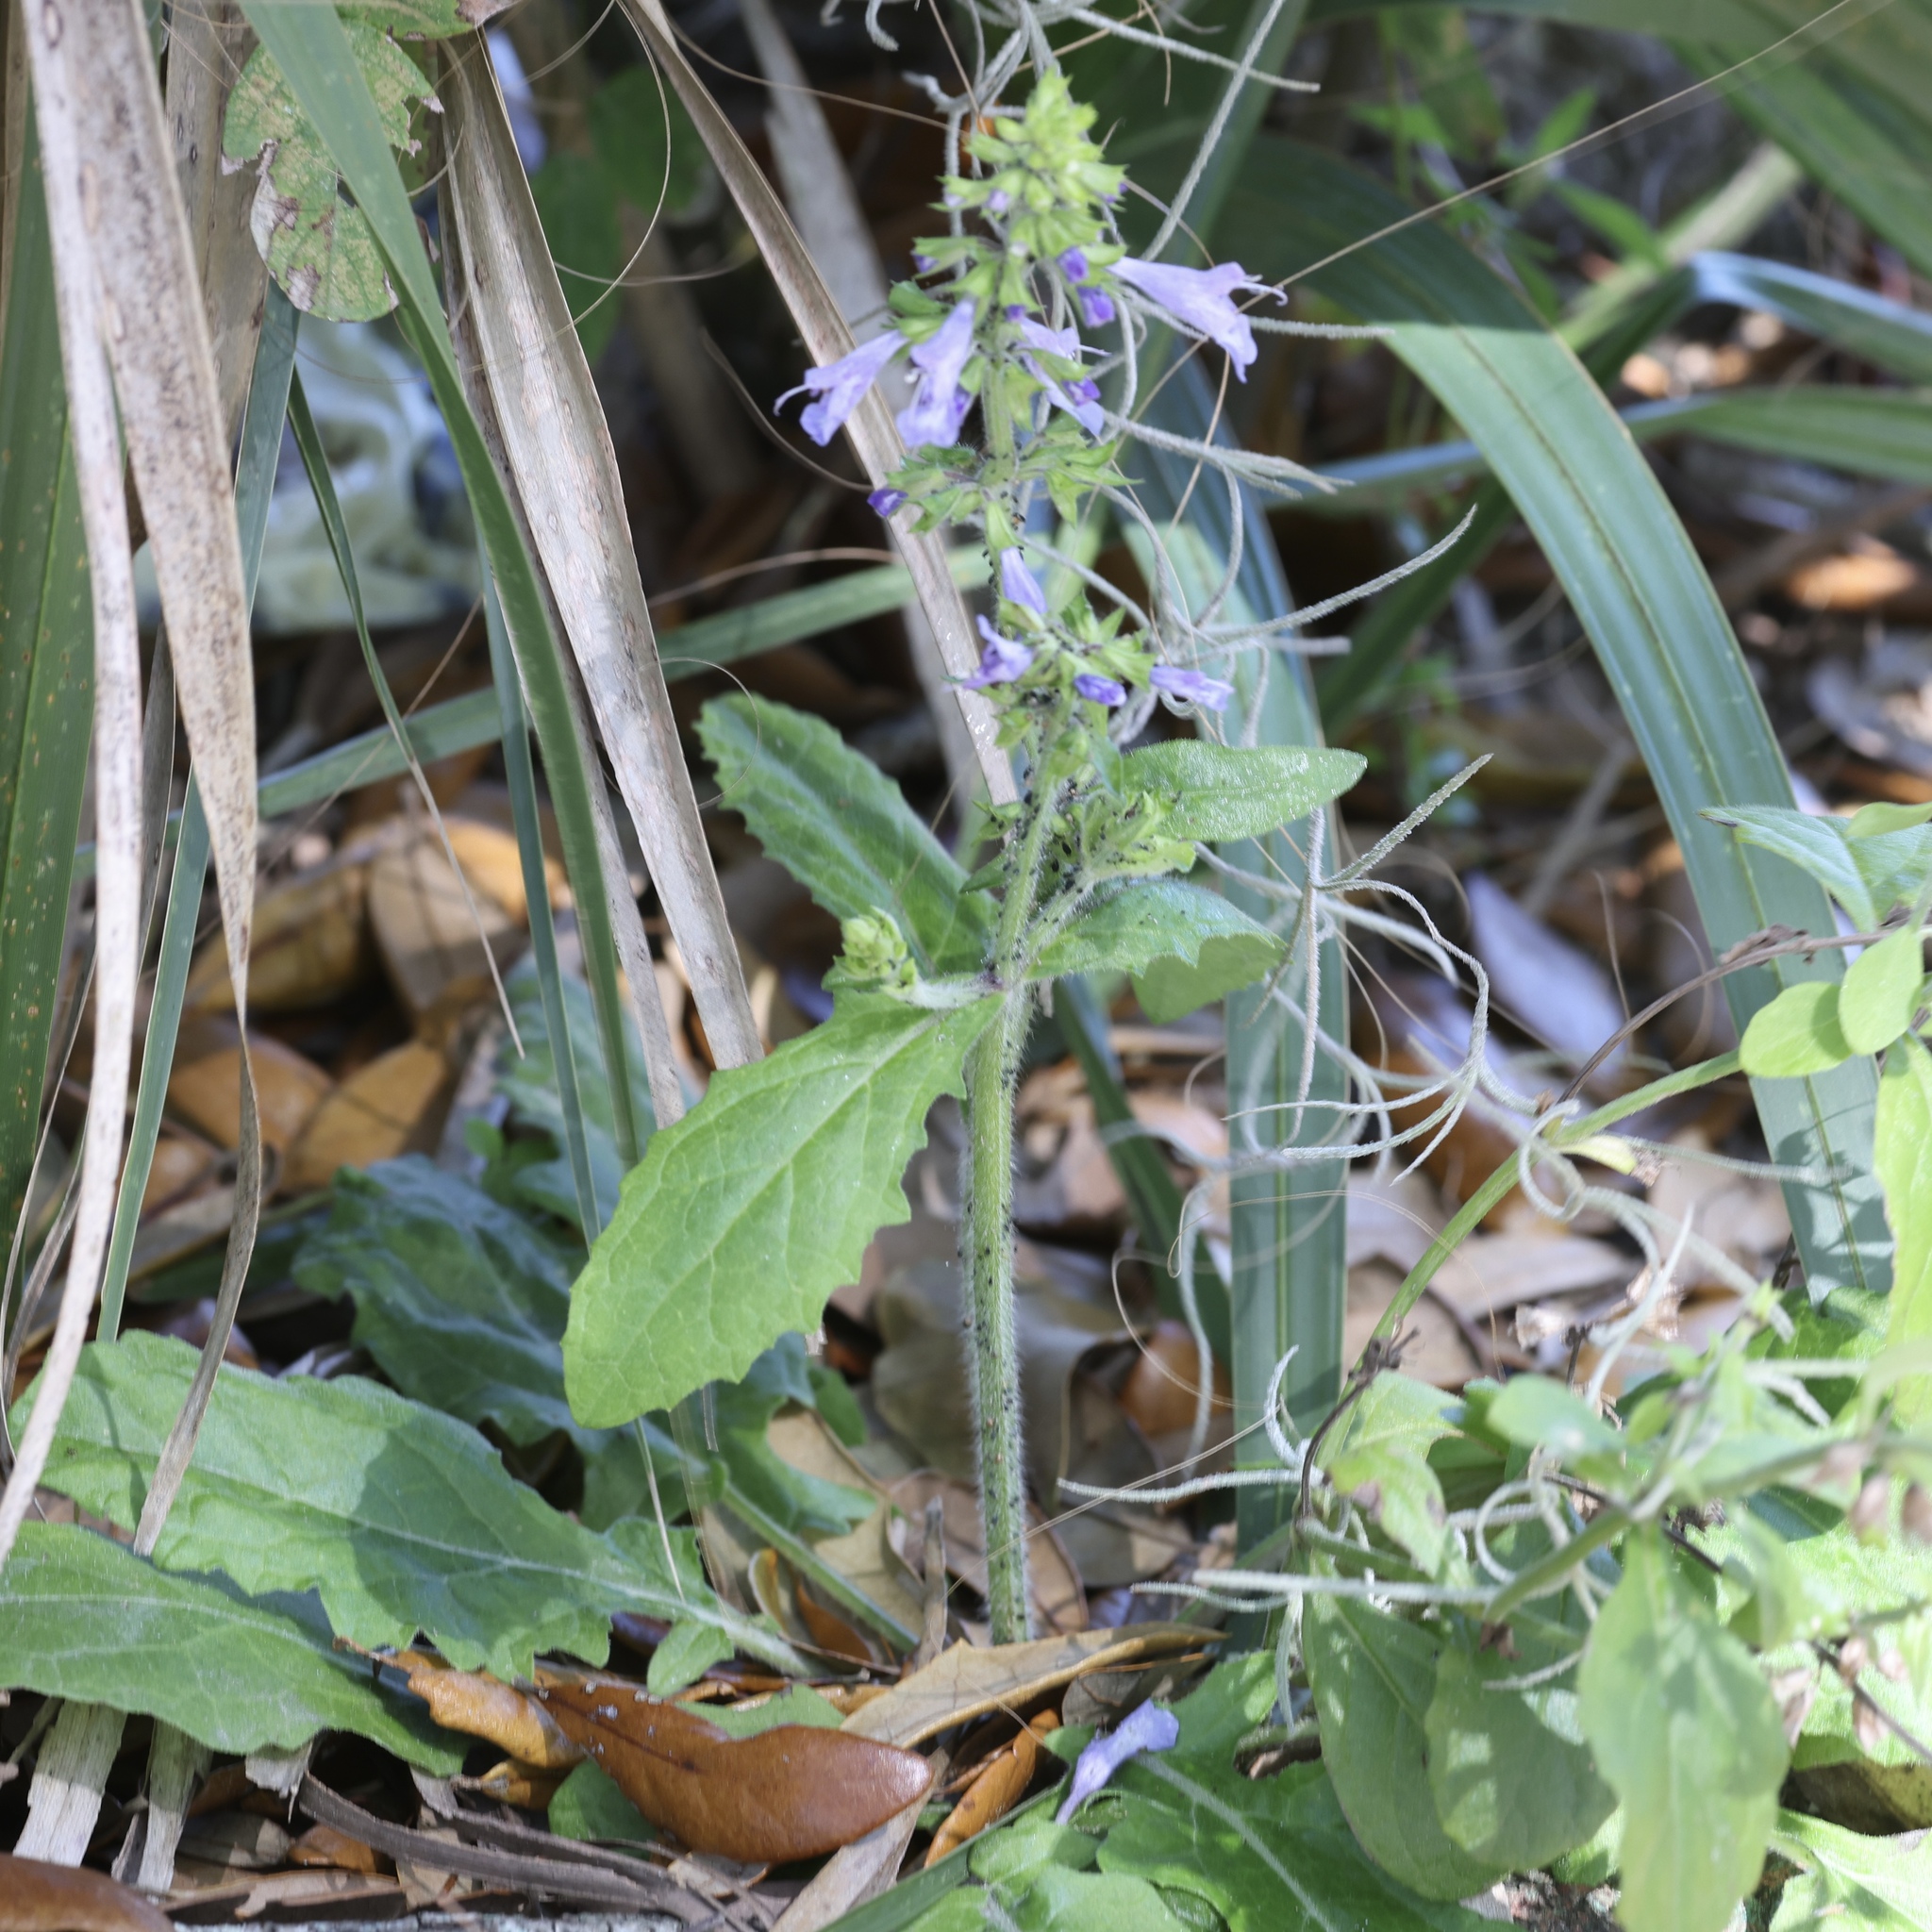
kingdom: Plantae
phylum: Tracheophyta
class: Magnoliopsida
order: Lamiales
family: Lamiaceae
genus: Salvia
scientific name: Salvia lyrata
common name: Cancerweed
